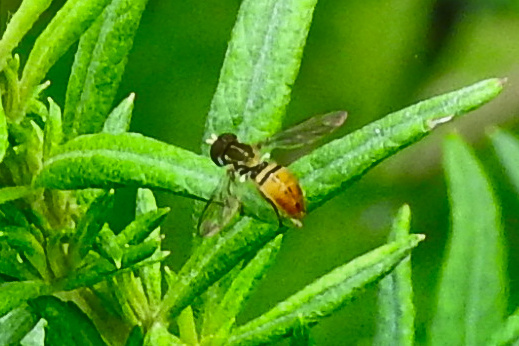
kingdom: Animalia
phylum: Arthropoda
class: Insecta
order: Diptera
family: Syrphidae
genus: Toxomerus
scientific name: Toxomerus marginatus
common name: Syrphid fly
